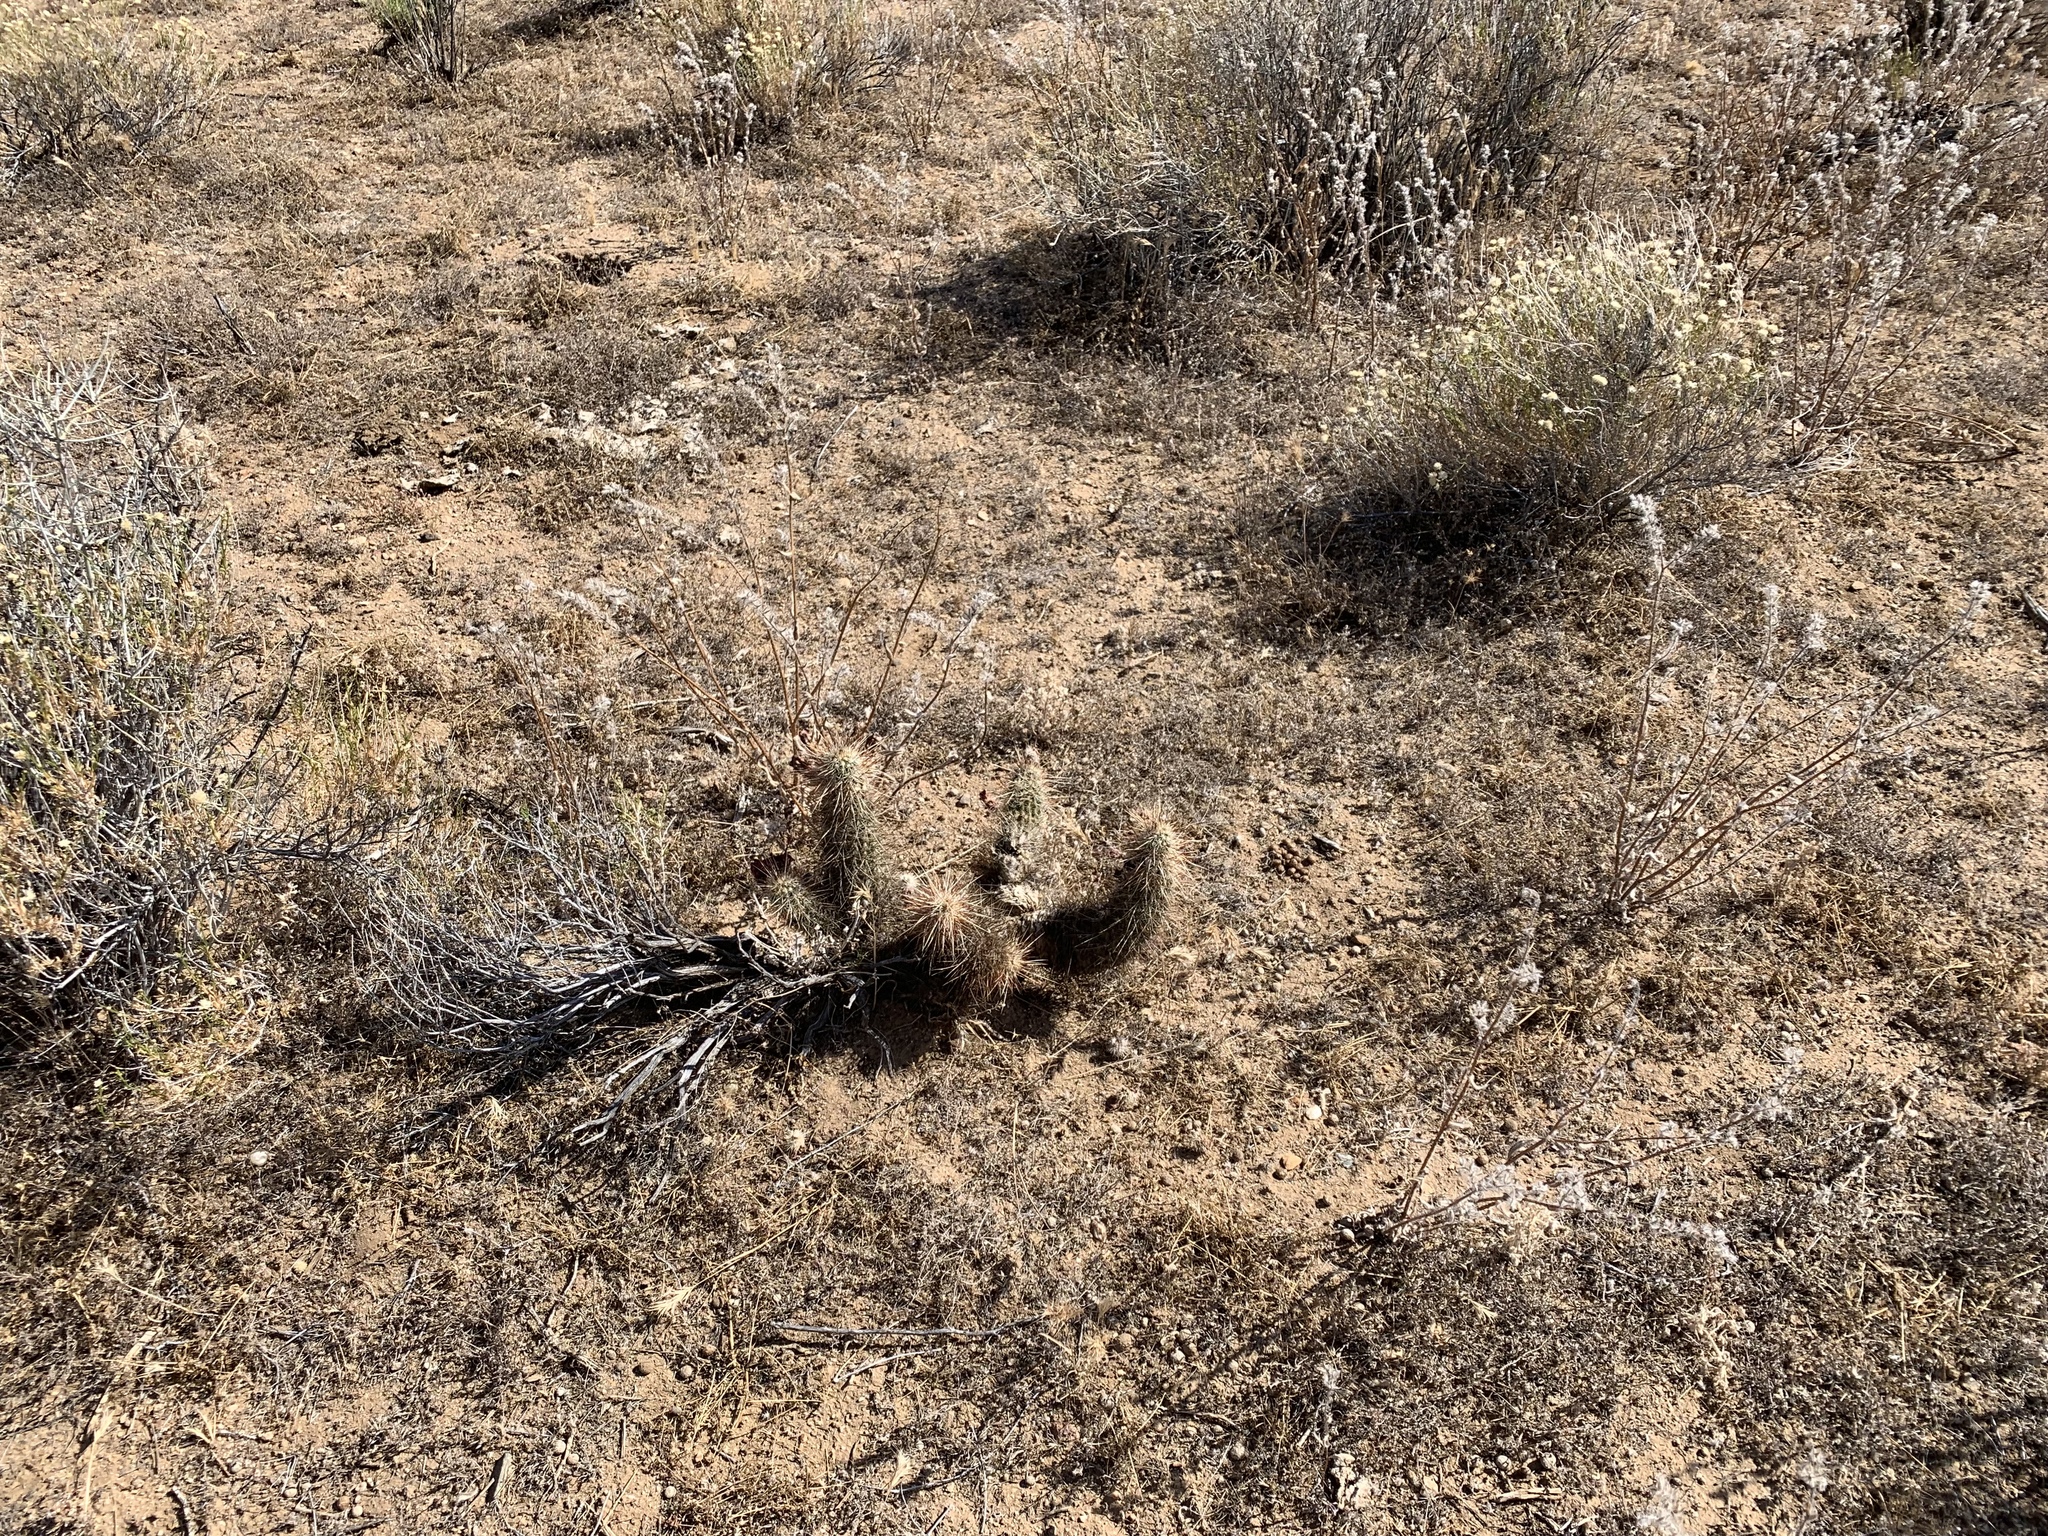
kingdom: Plantae
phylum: Tracheophyta
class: Magnoliopsida
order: Caryophyllales
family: Cactaceae
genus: Echinocereus
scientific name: Echinocereus engelmannii
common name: Engelmann's hedgehog cactus
